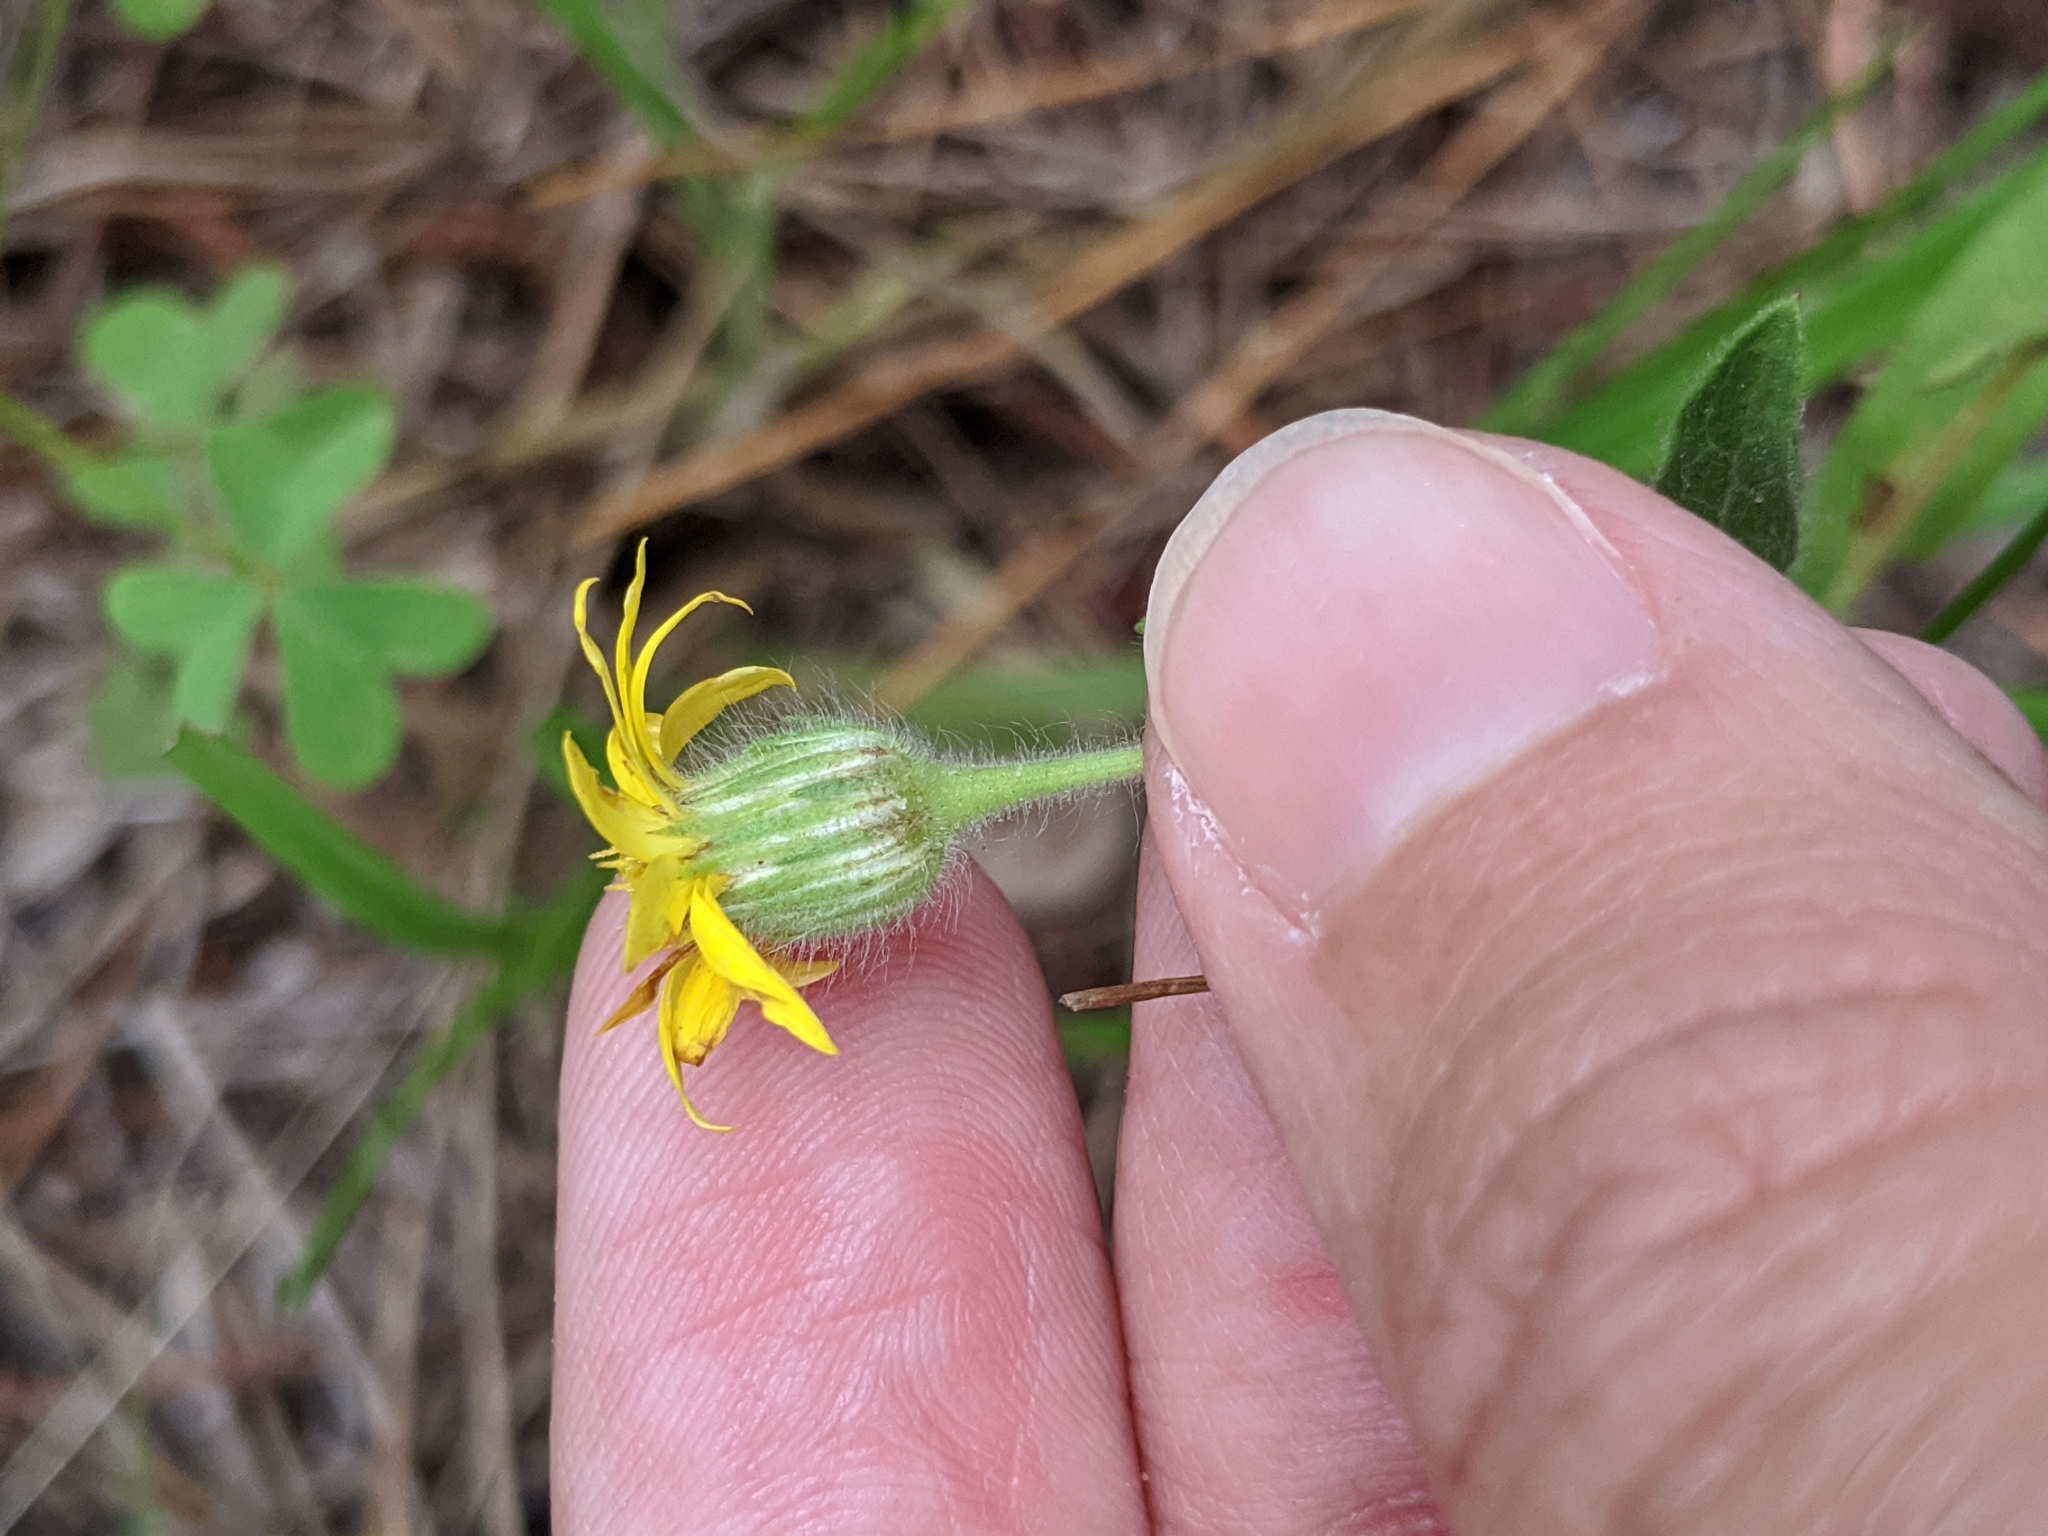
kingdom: Plantae
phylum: Tracheophyta
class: Magnoliopsida
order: Asterales
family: Asteraceae
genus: Bradburia
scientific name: Bradburia pilosa
